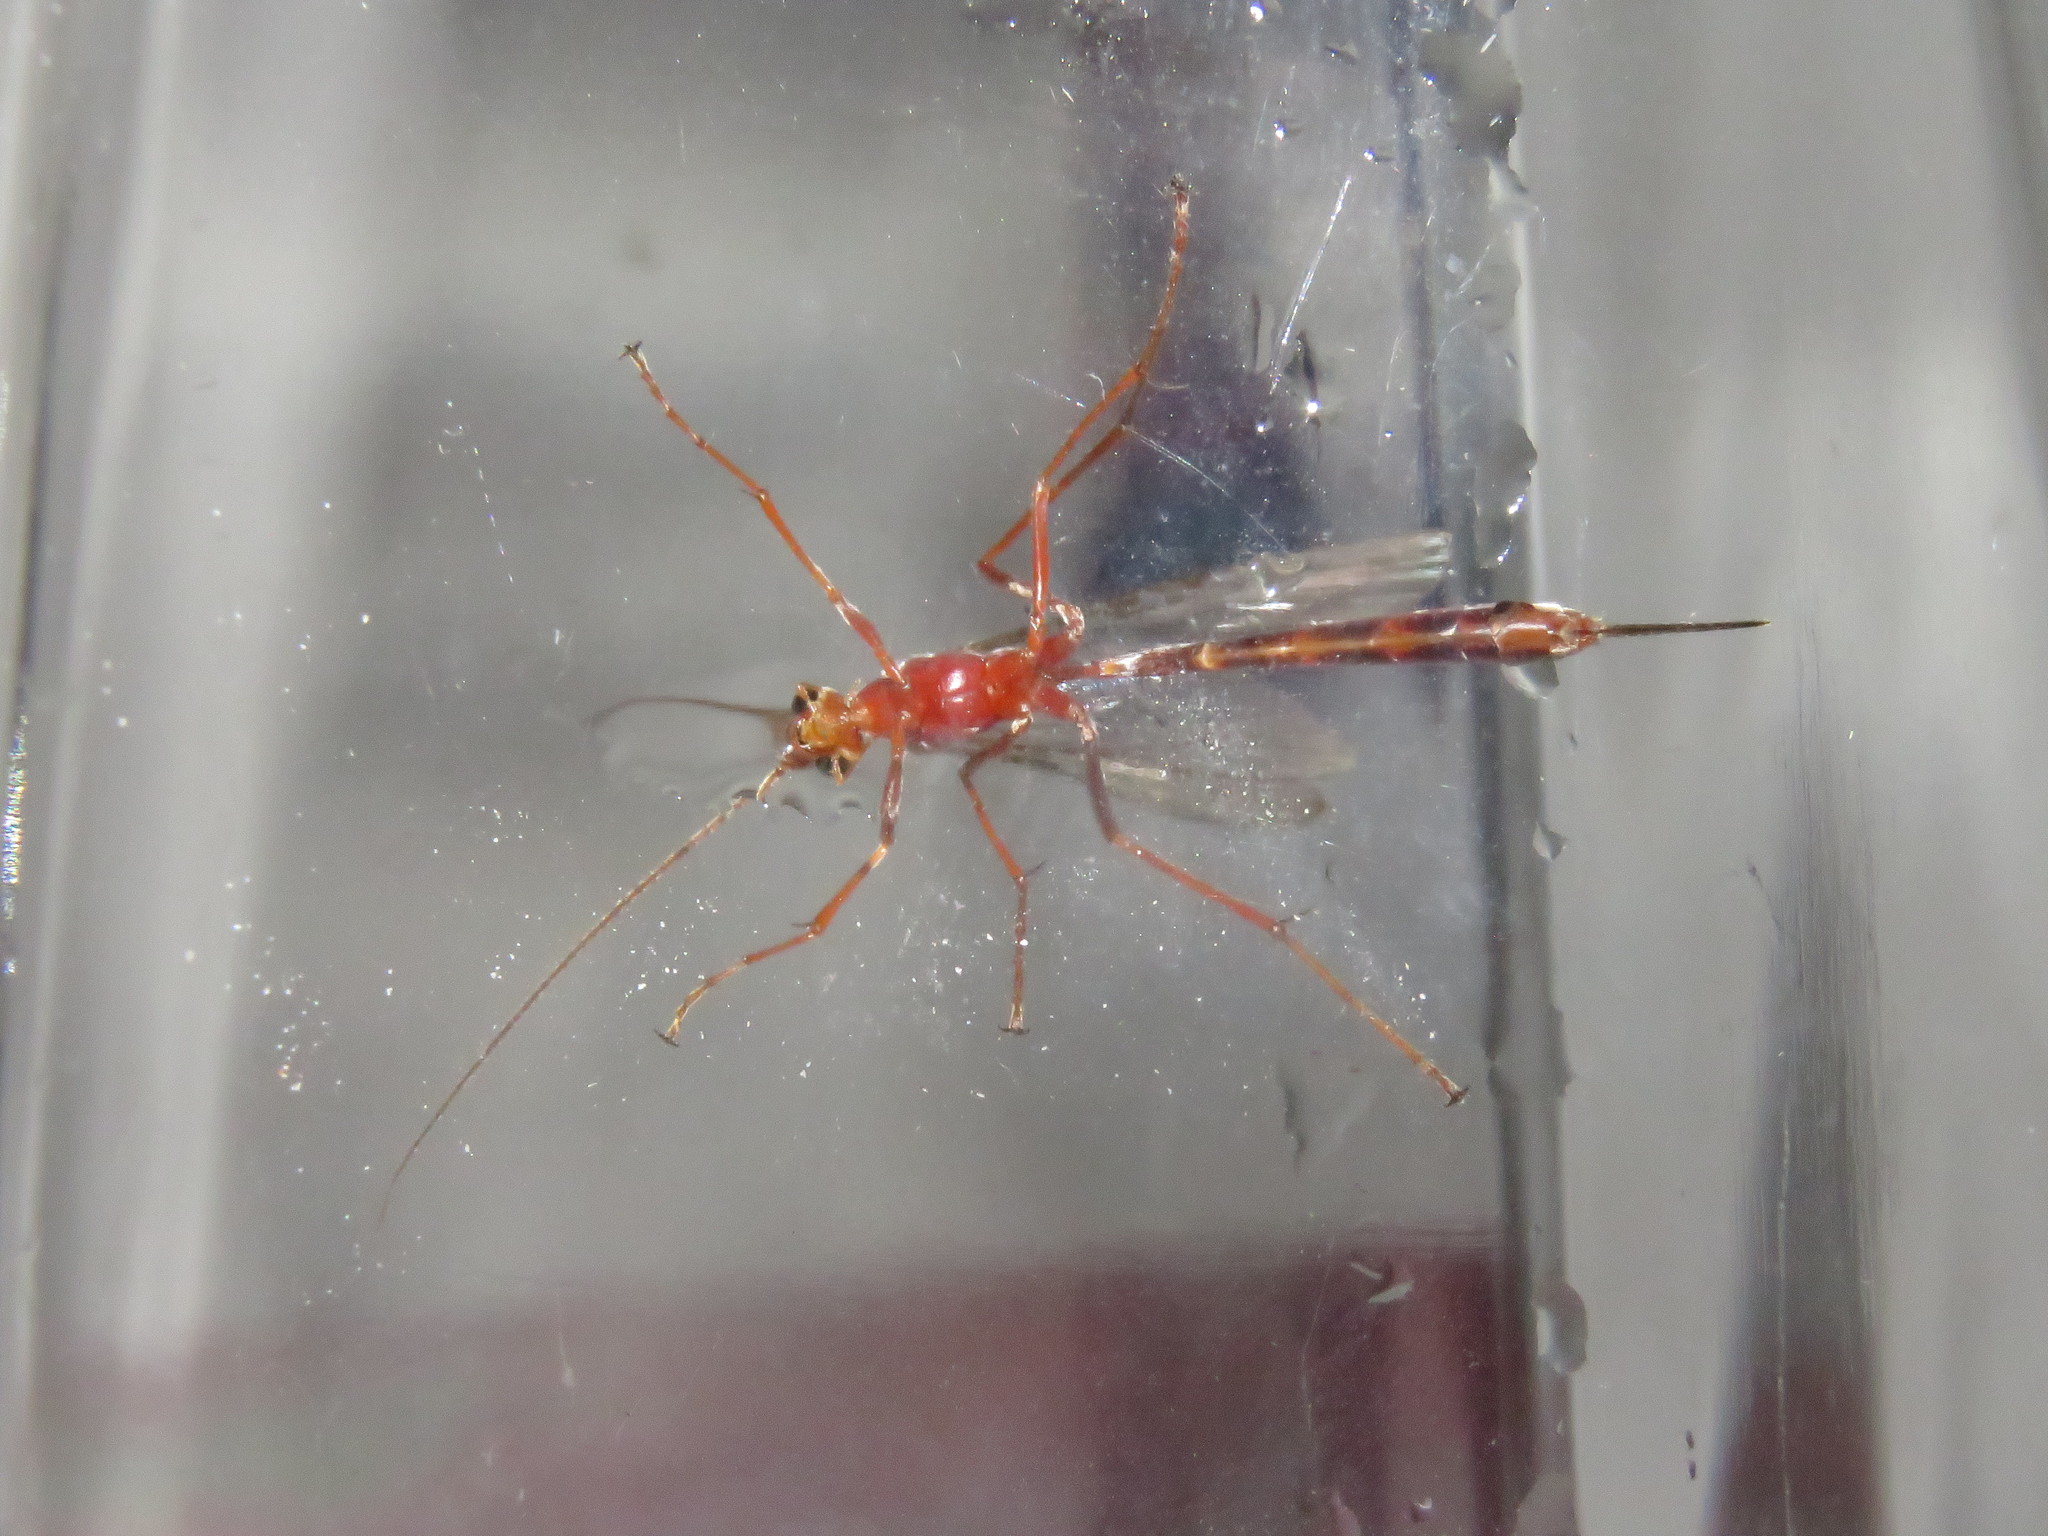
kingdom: Animalia
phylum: Arthropoda
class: Insecta
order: Hymenoptera
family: Ichneumonidae
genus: Netelia
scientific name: Netelia
